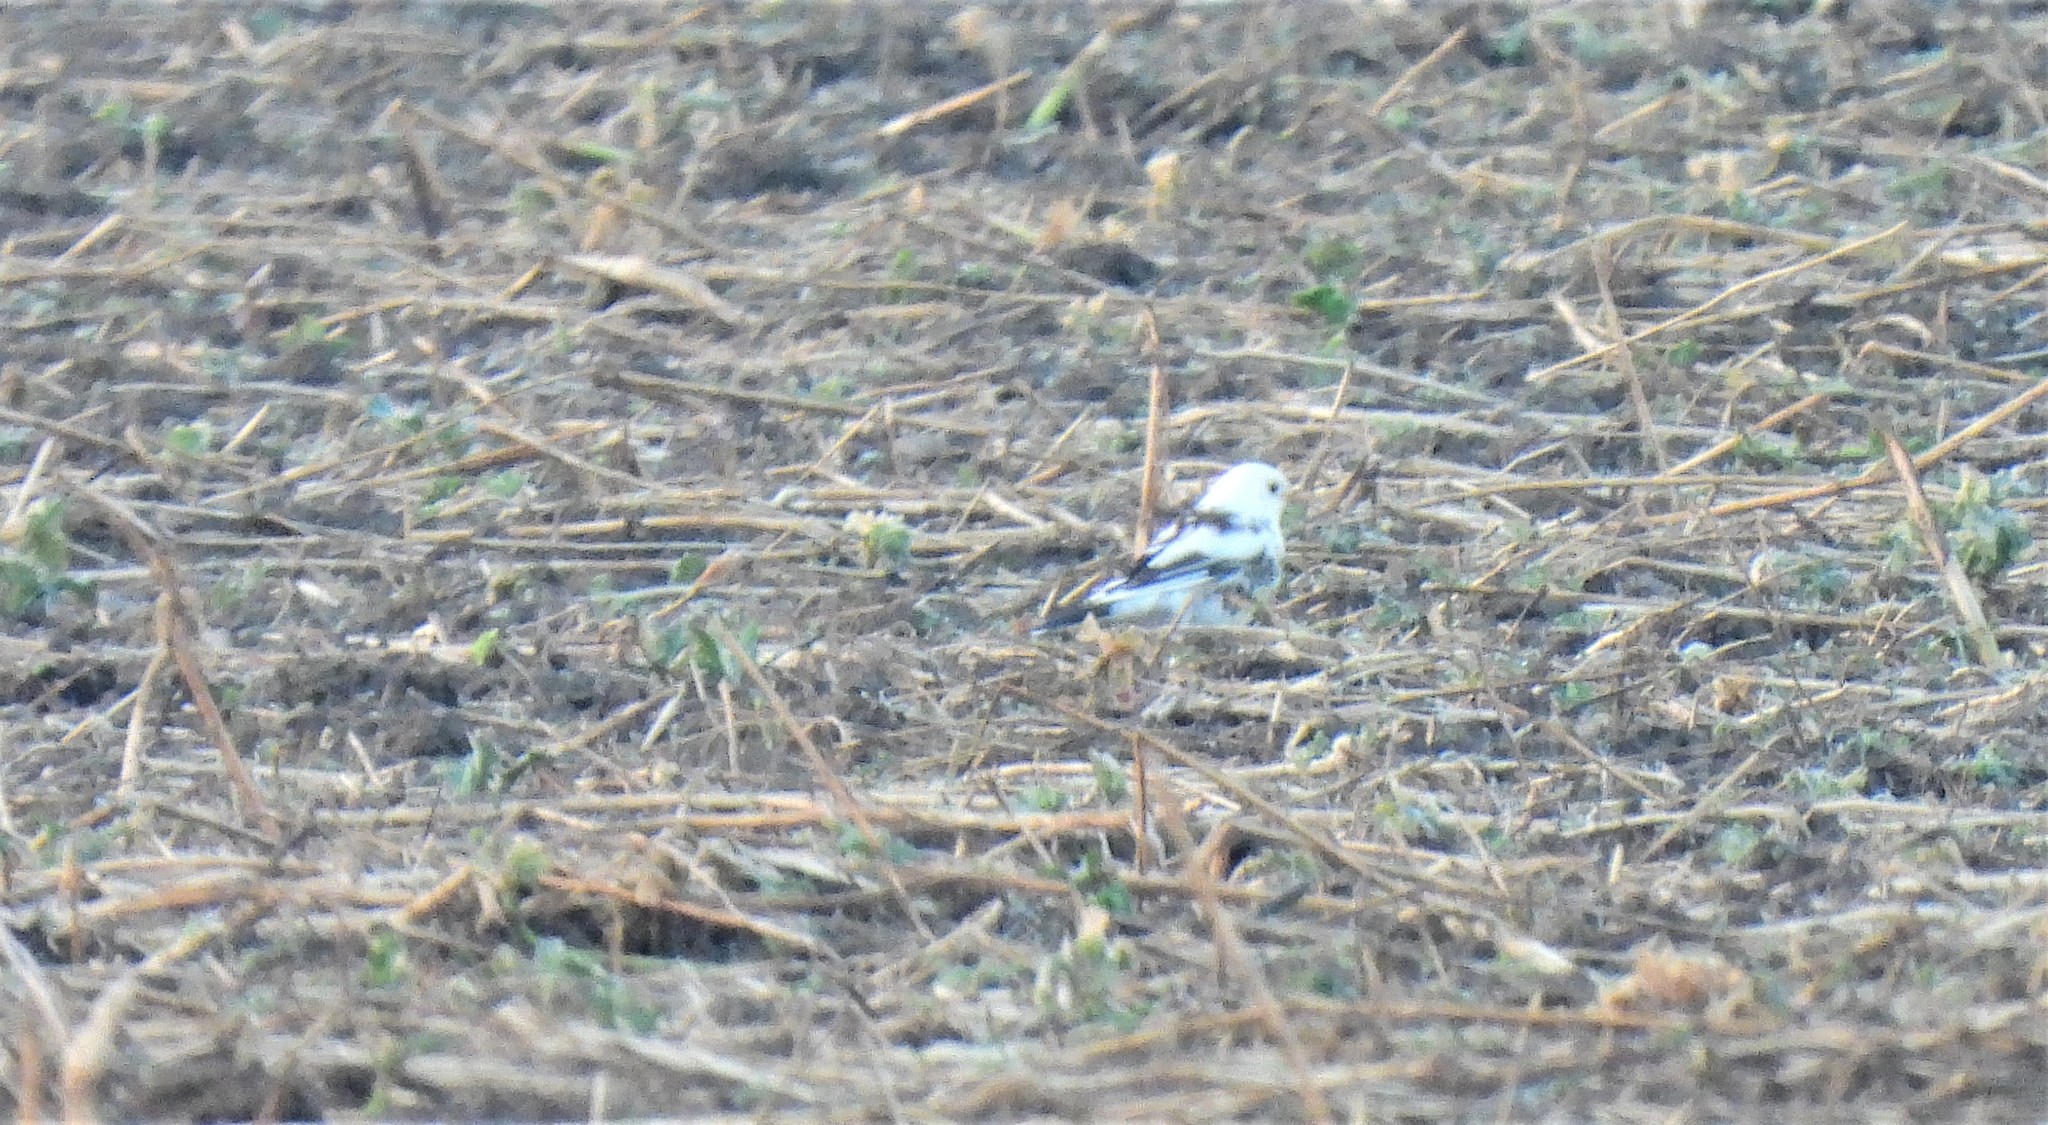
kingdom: Animalia
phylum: Chordata
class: Aves
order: Passeriformes
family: Turdidae
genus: Turdus
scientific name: Turdus merula
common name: Common blackbird
